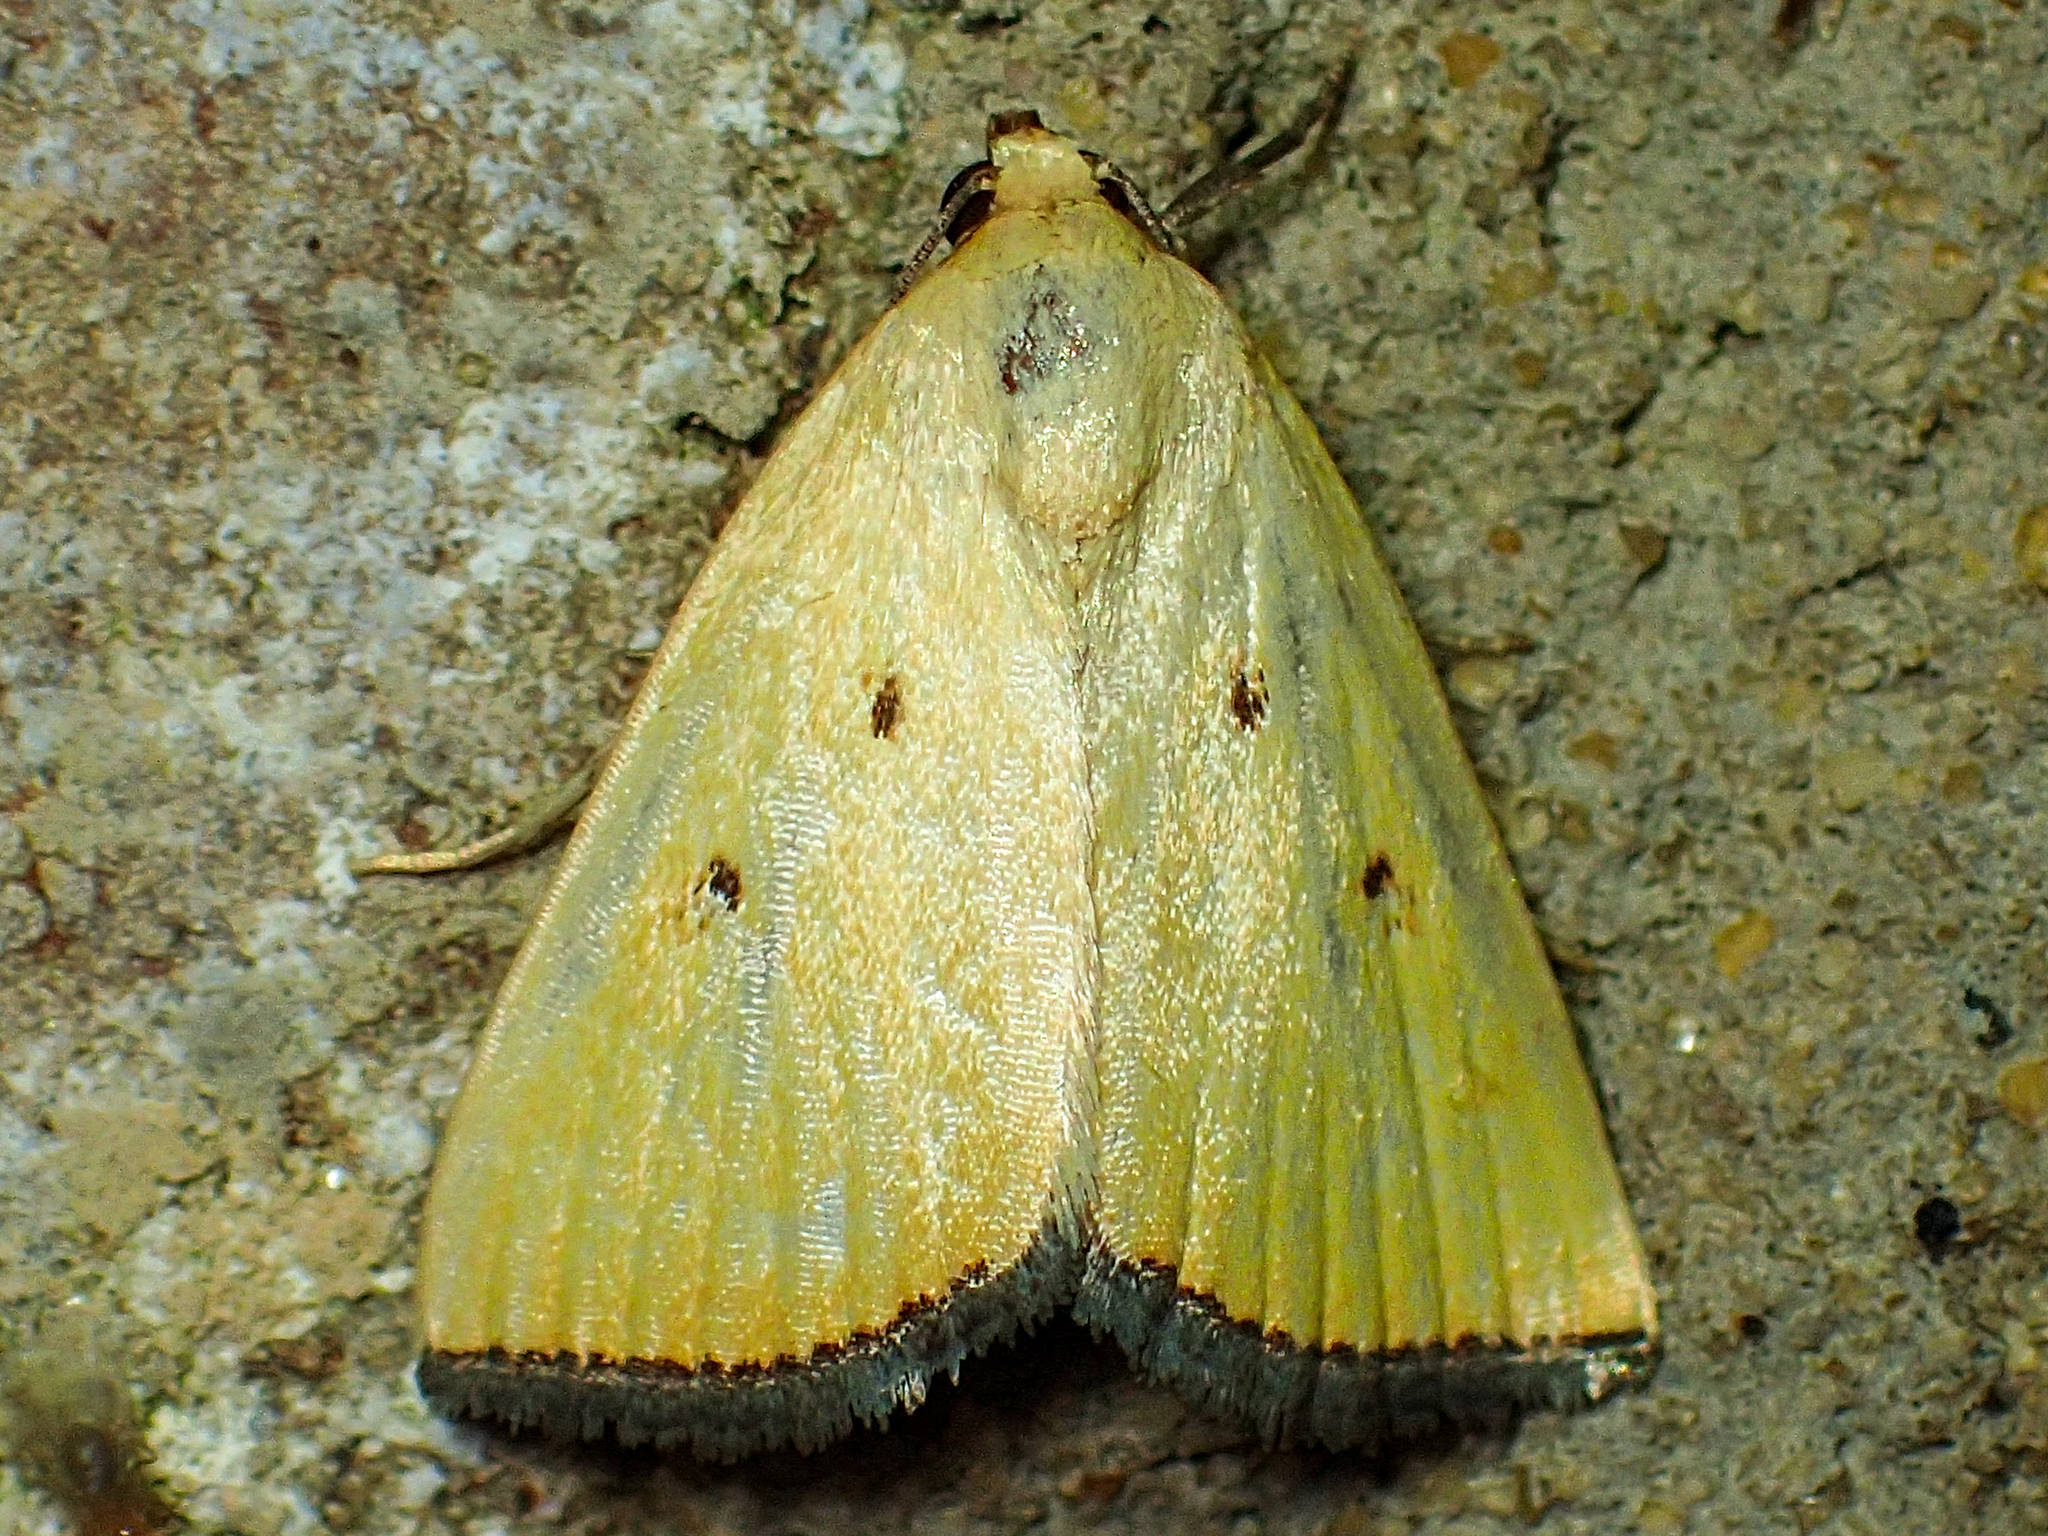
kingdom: Animalia
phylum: Arthropoda
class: Insecta
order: Lepidoptera
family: Noctuidae
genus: Marimatha
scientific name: Marimatha nigrofimbria
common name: Black-bordered lemon moth
